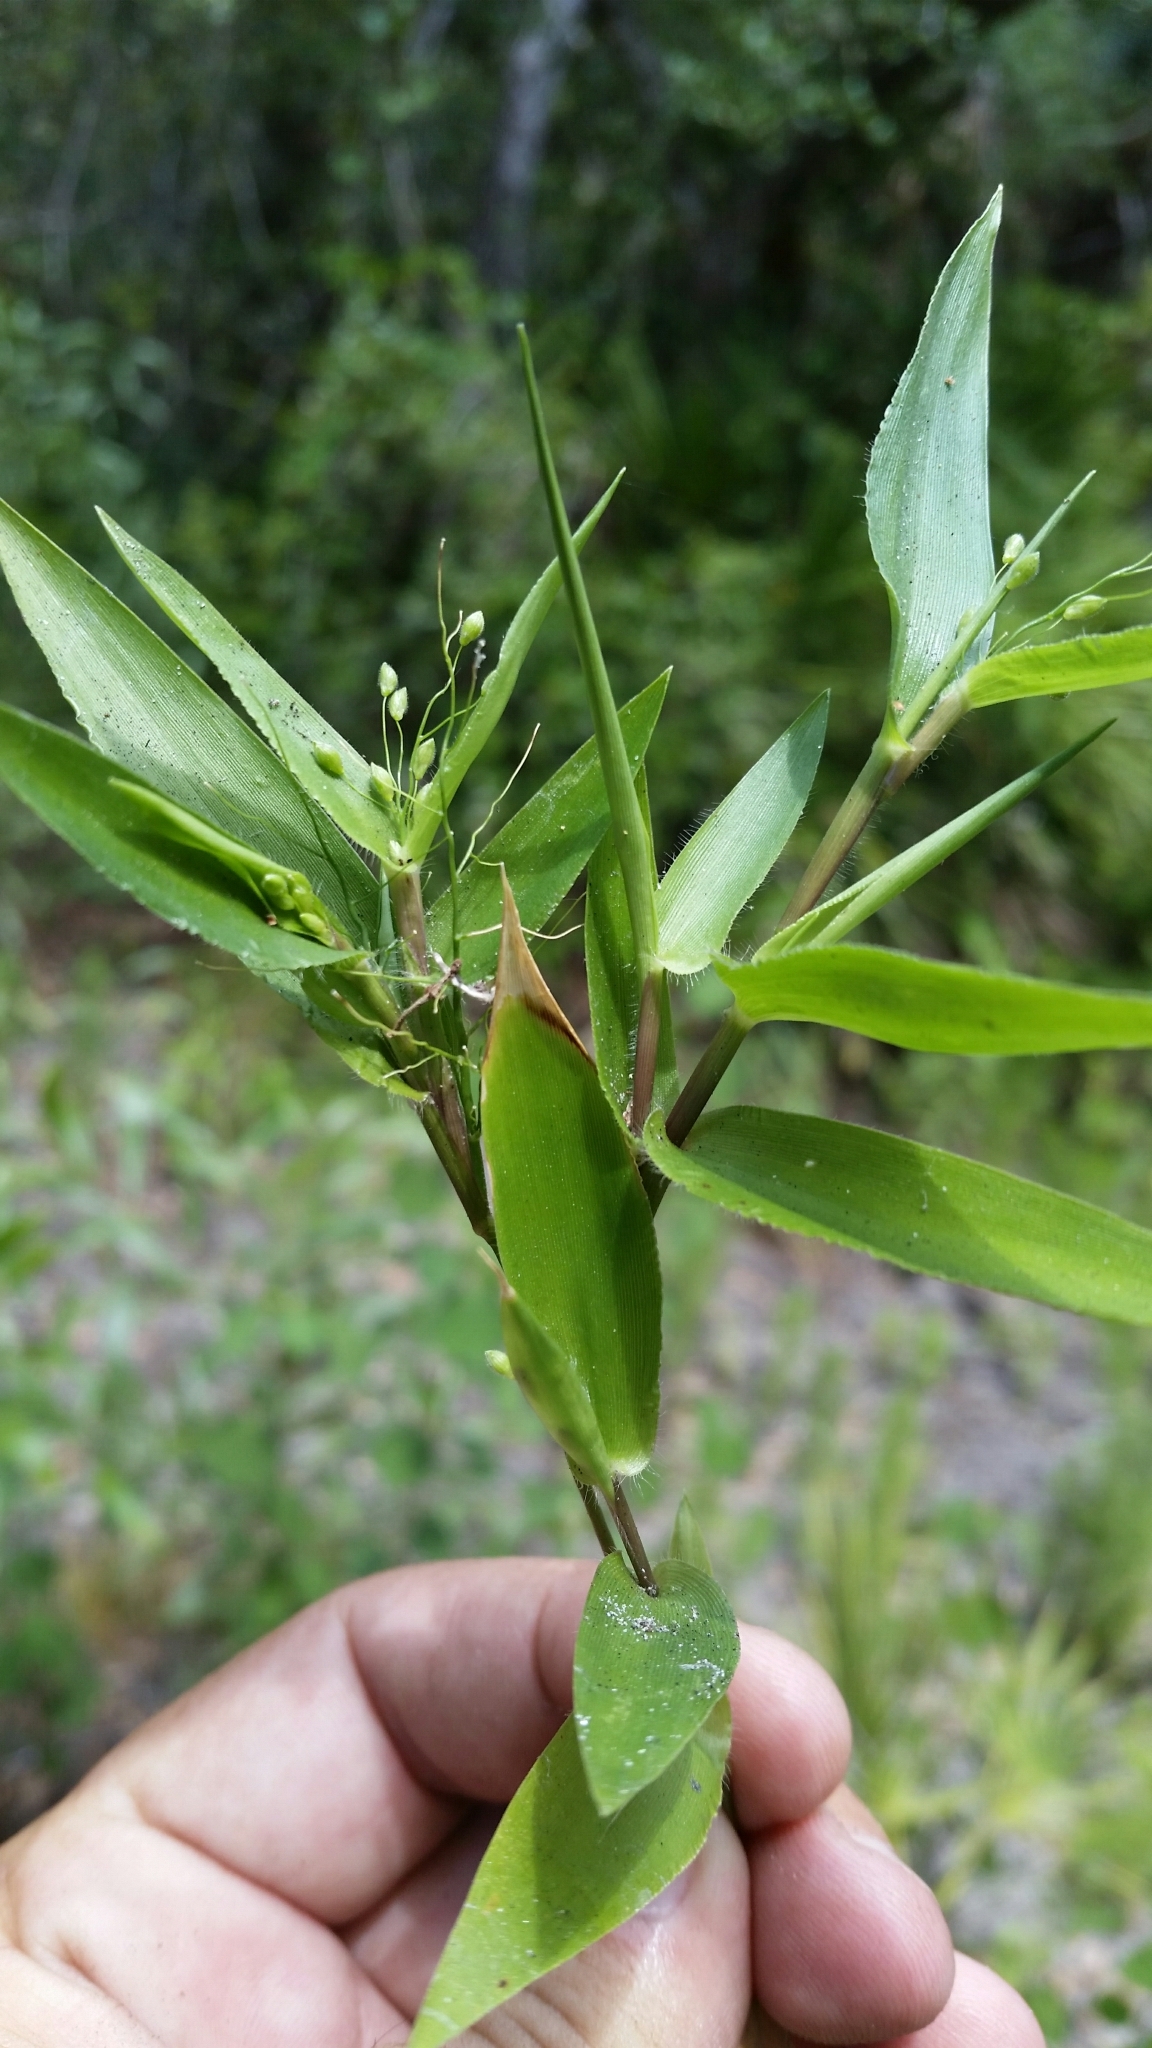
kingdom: Plantae
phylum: Tracheophyta
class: Liliopsida
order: Poales
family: Poaceae
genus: Dichanthelium
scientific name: Dichanthelium commutatum
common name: Variable witchgrass
